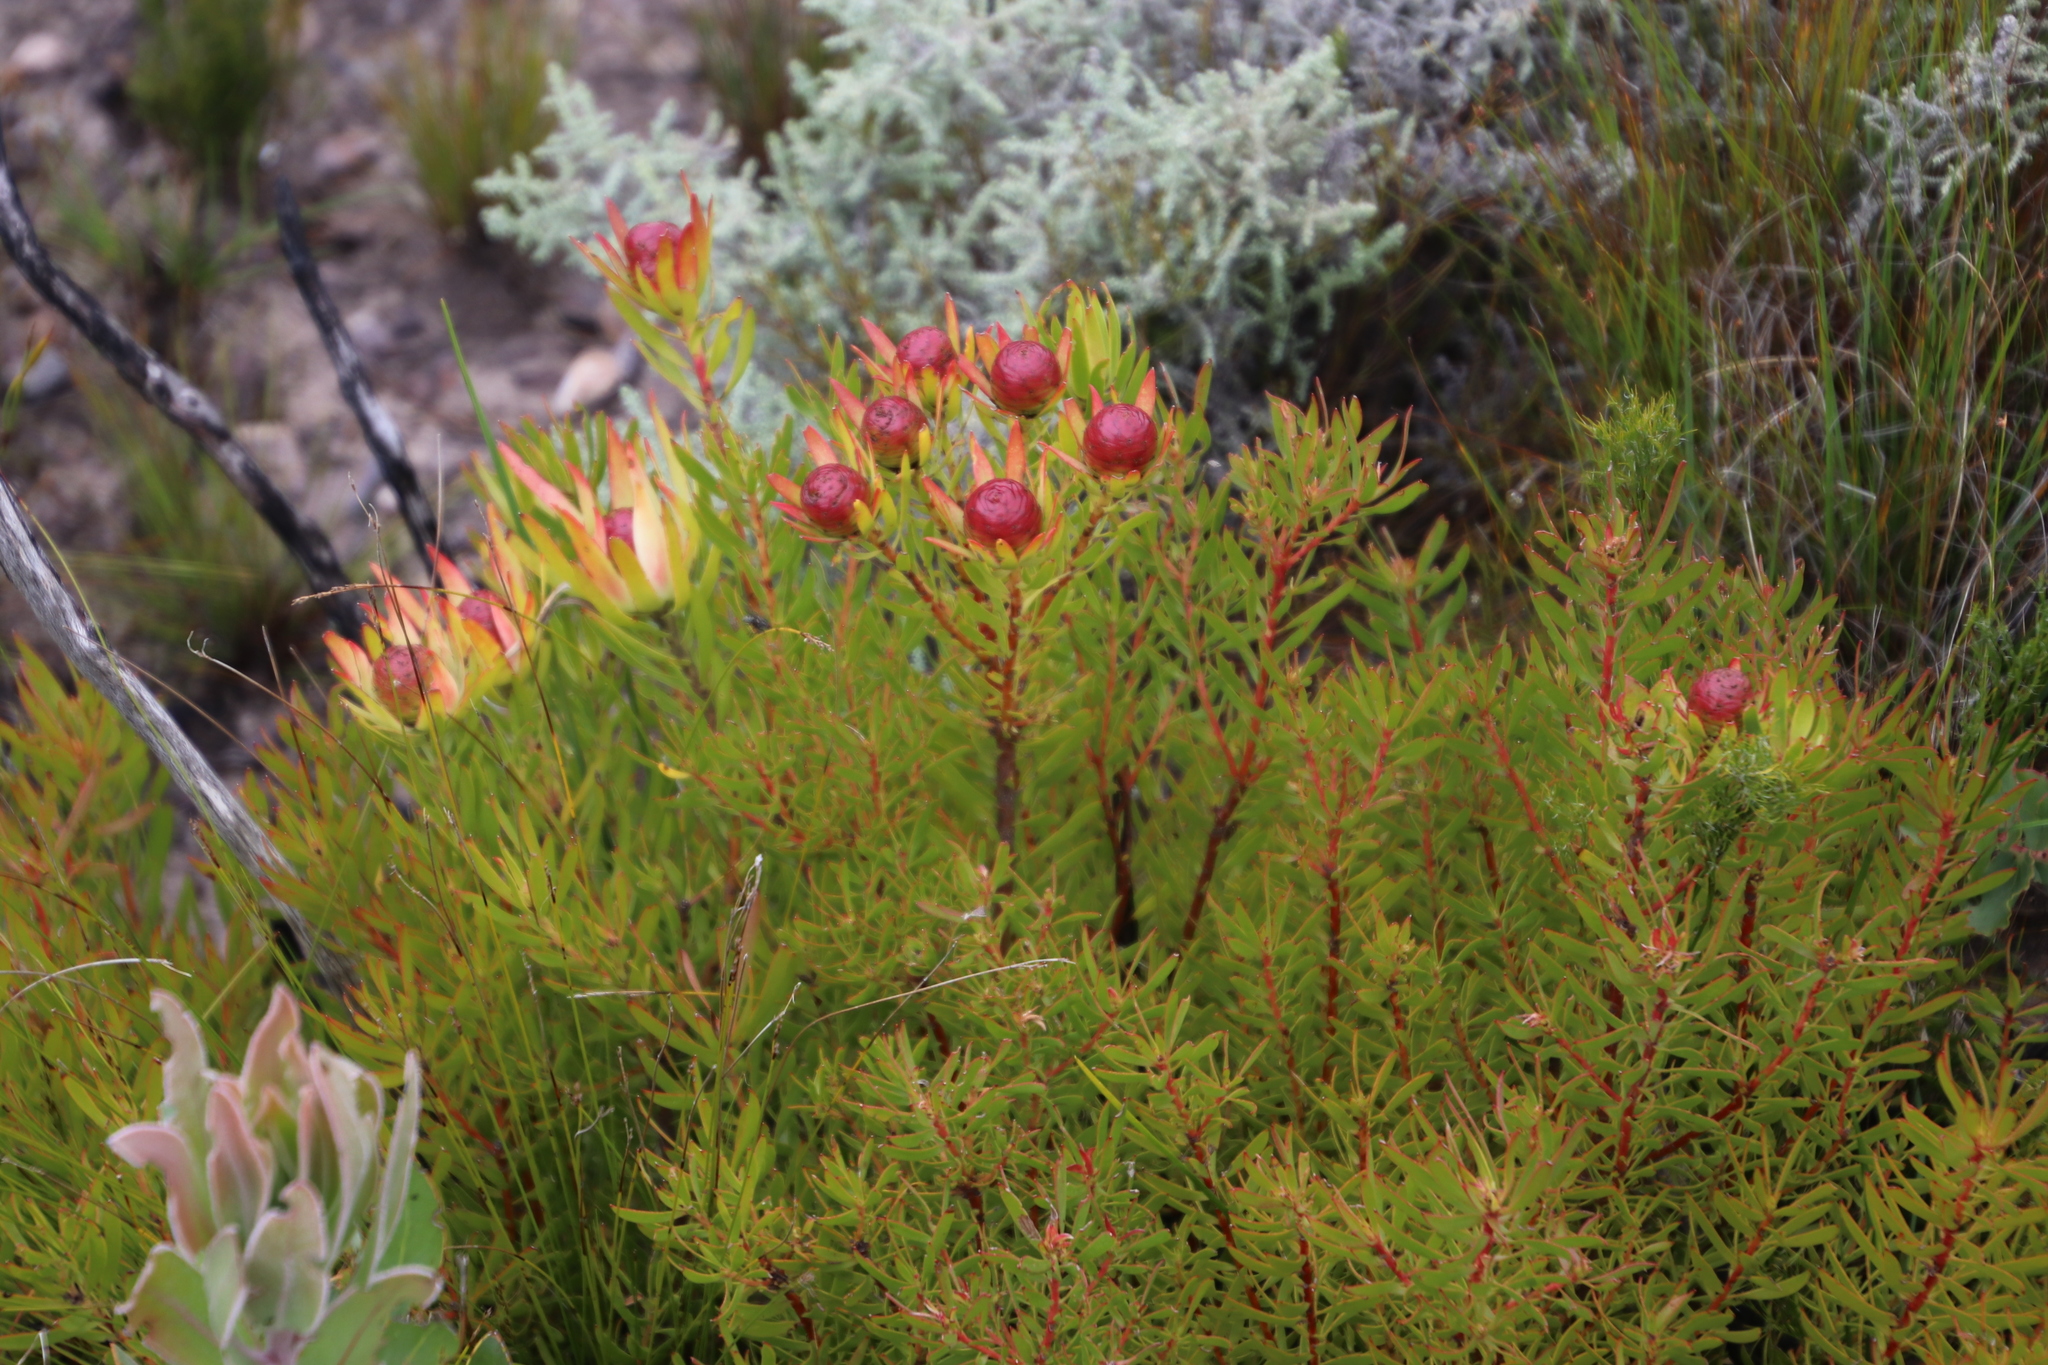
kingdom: Plantae
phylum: Tracheophyta
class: Magnoliopsida
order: Proteales
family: Proteaceae
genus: Leucadendron
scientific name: Leucadendron spissifolium
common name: Spear-leaf conebush
